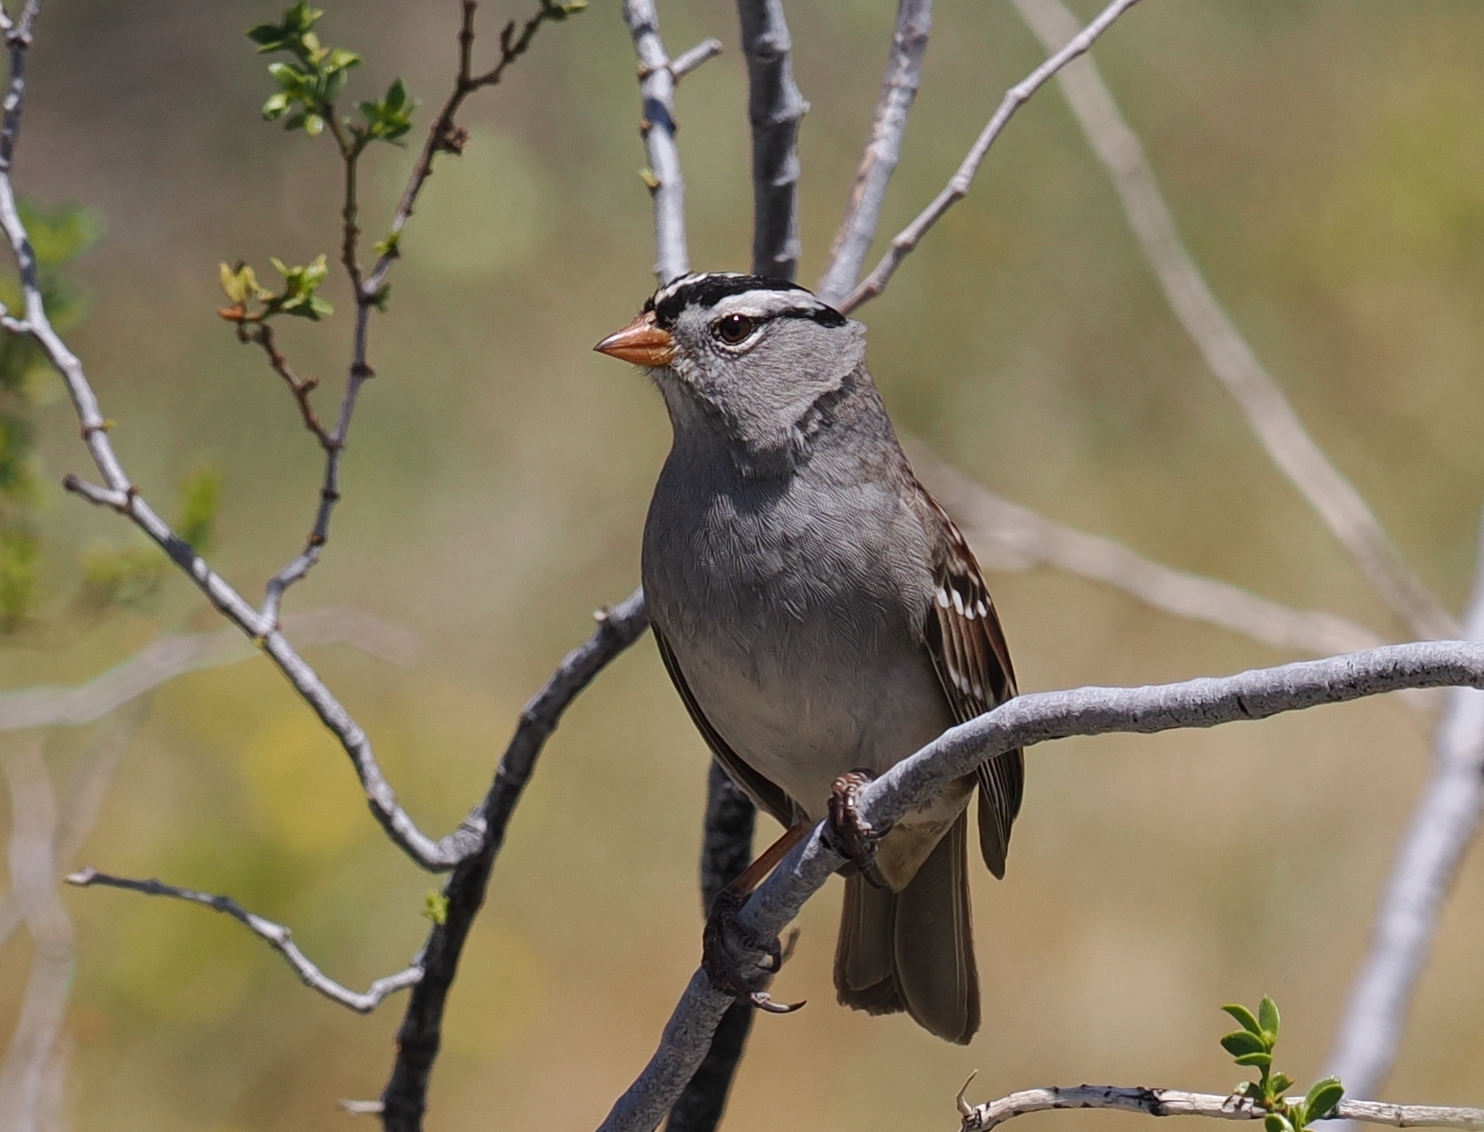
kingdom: Animalia
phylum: Chordata
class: Aves
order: Passeriformes
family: Passerellidae
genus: Zonotrichia
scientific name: Zonotrichia leucophrys
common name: White-crowned sparrow
